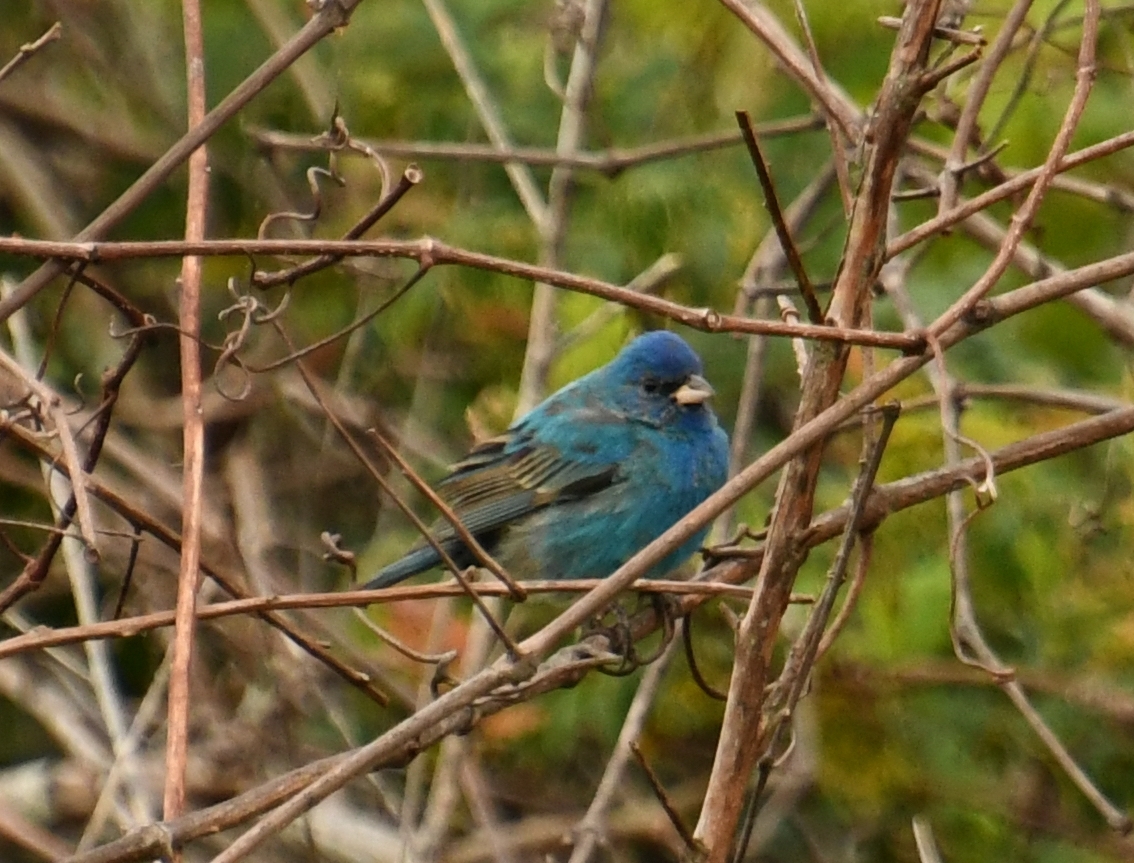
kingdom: Animalia
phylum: Chordata
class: Aves
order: Passeriformes
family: Cardinalidae
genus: Passerina
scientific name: Passerina cyanea
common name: Indigo bunting
